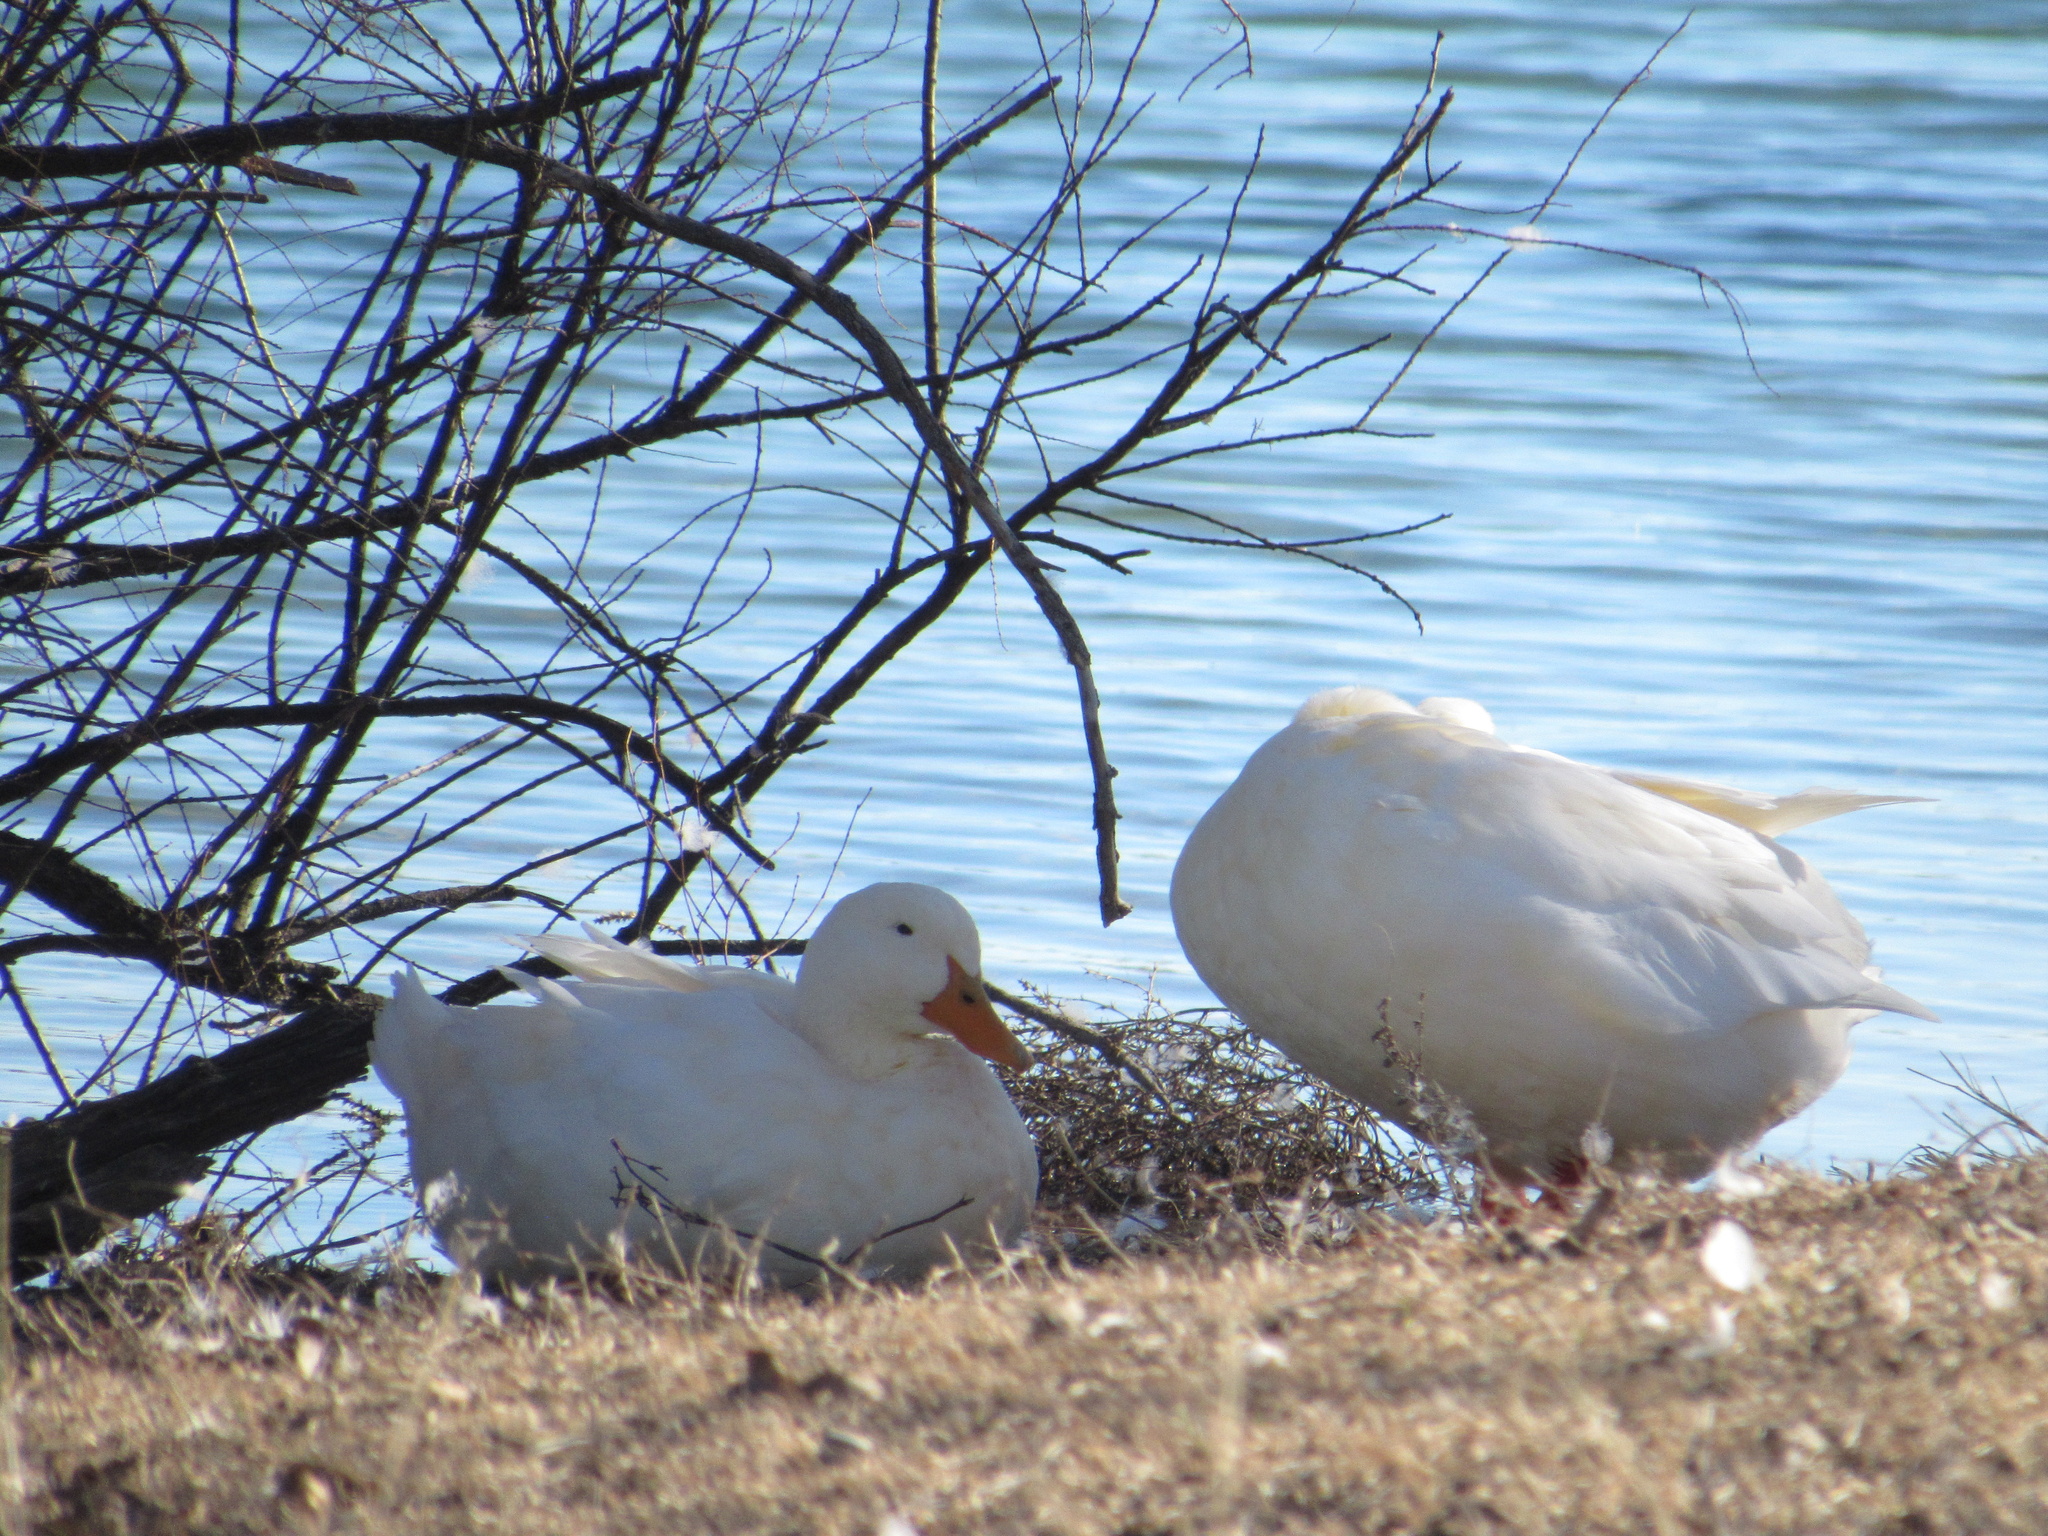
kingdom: Animalia
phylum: Chordata
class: Aves
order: Anseriformes
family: Anatidae
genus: Anas
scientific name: Anas platyrhynchos
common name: Mallard
